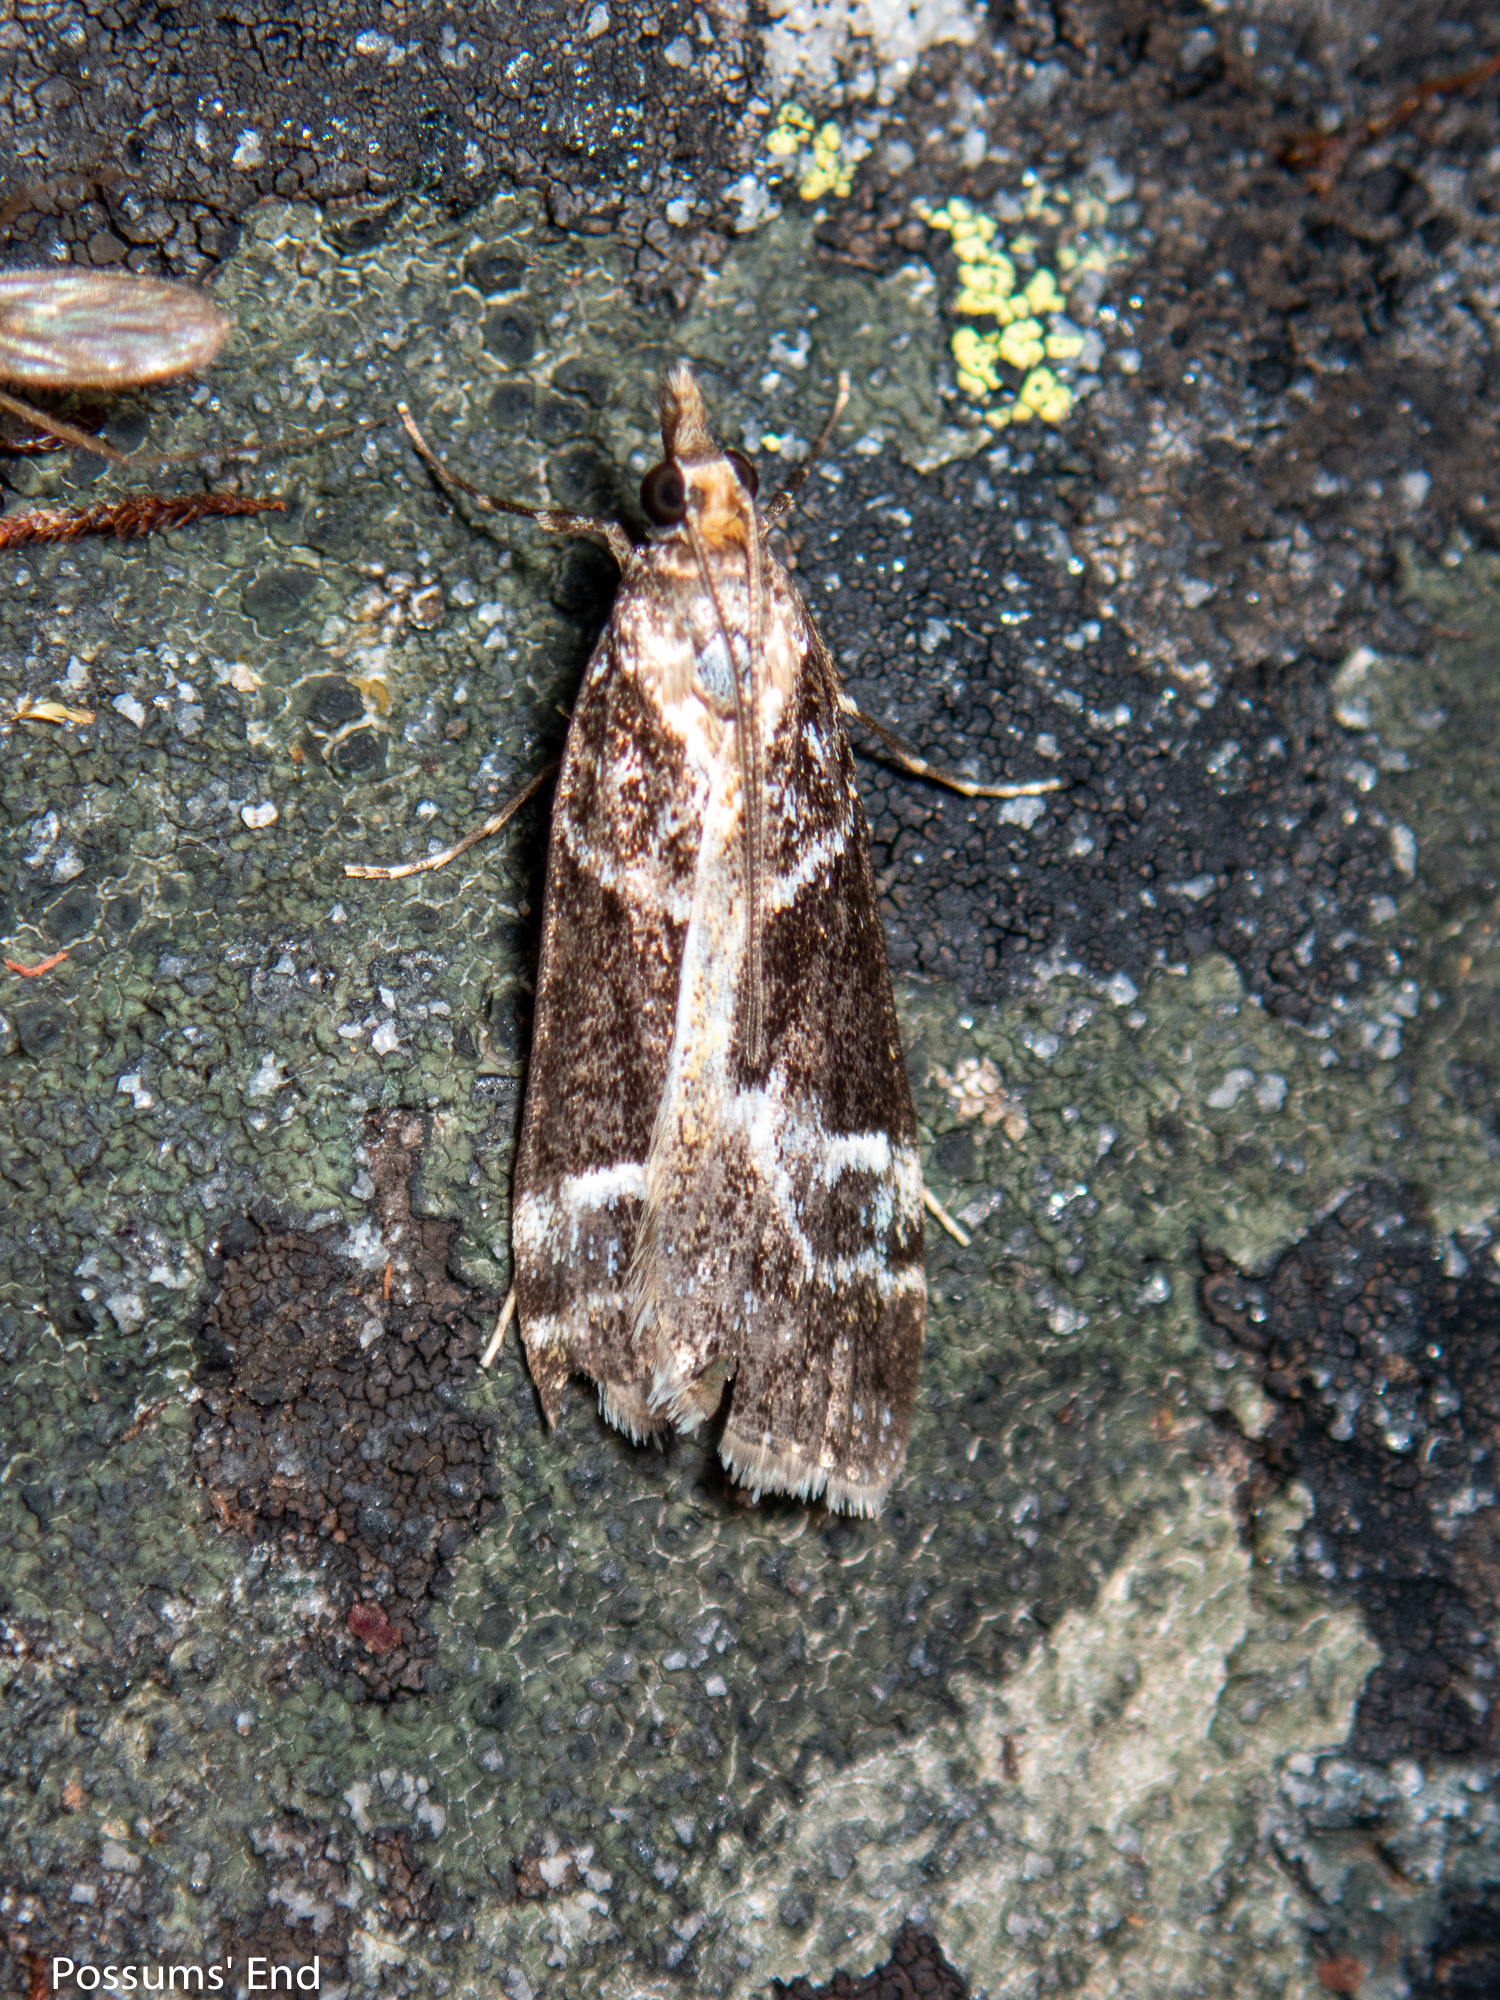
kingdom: Animalia
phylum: Arthropoda
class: Insecta
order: Lepidoptera
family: Crambidae
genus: Eudonia
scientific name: Eudonia melanaegis
